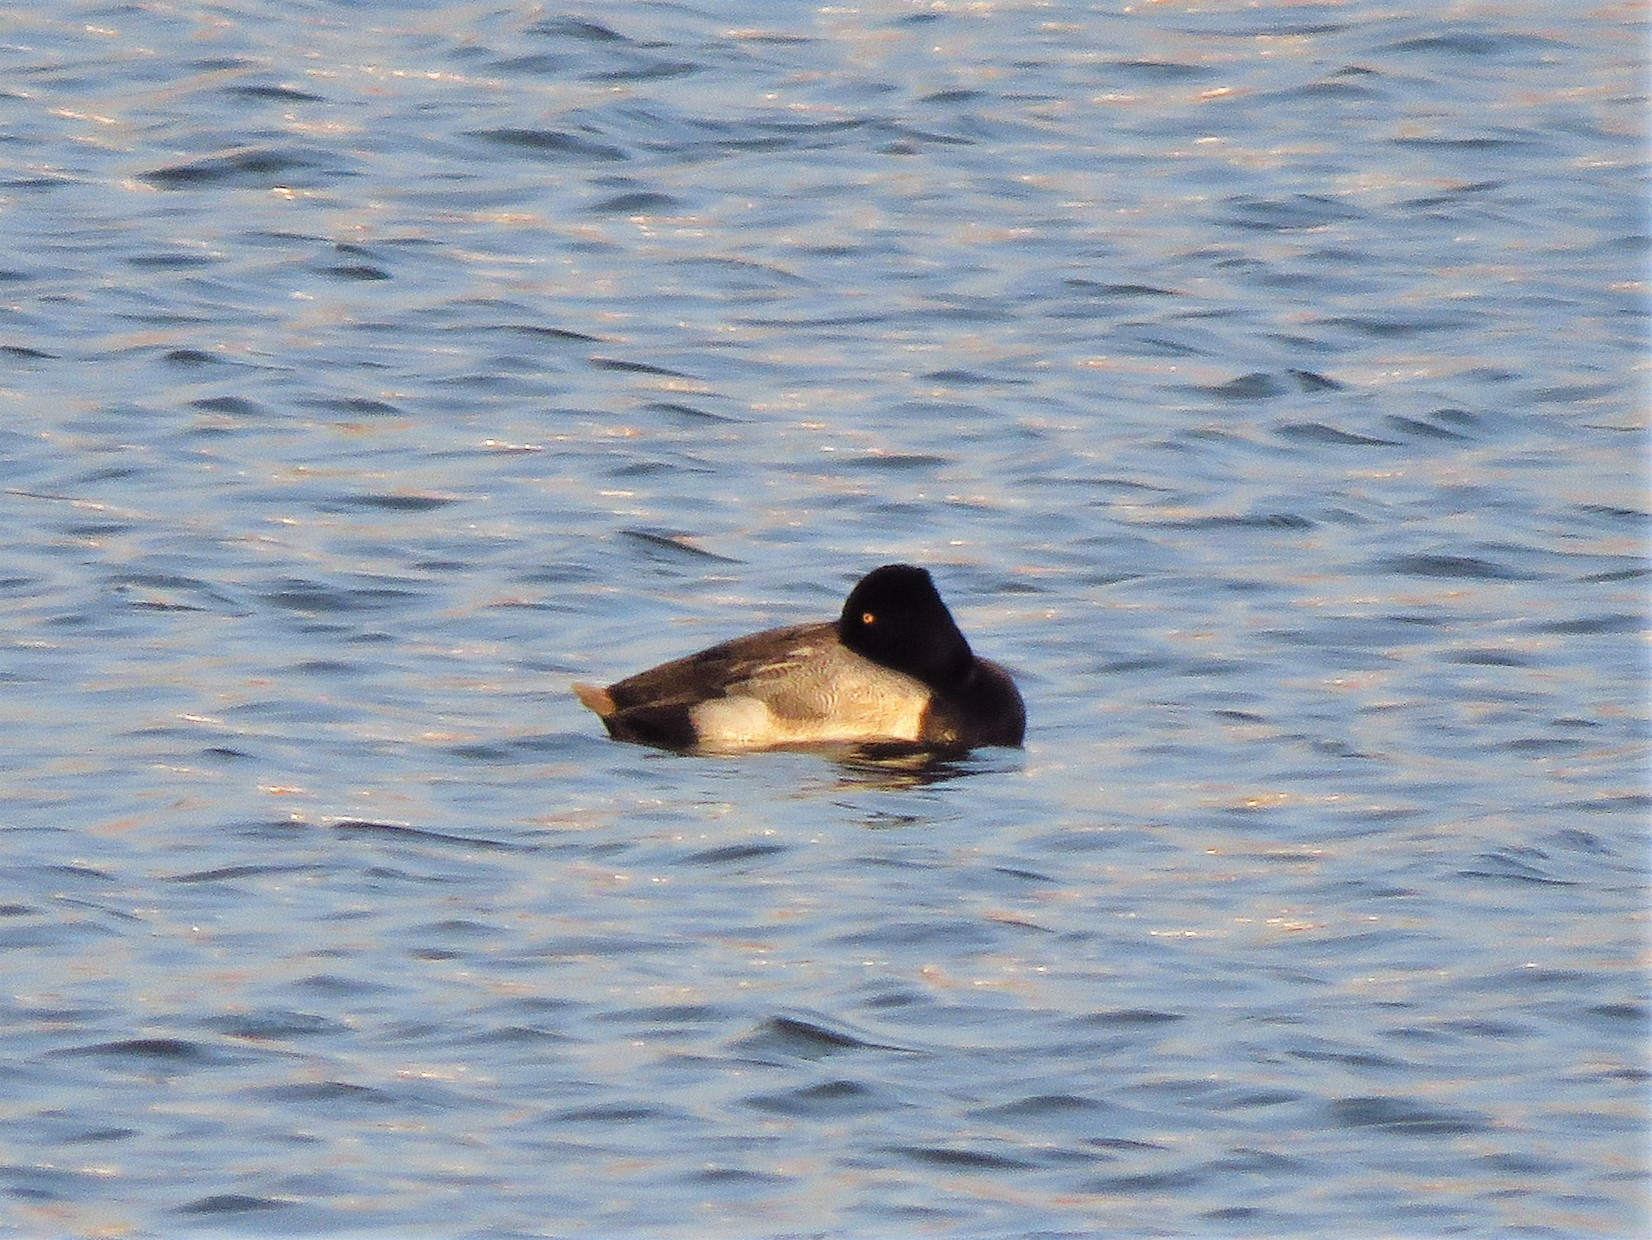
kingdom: Animalia
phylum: Chordata
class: Aves
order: Anseriformes
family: Anatidae
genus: Aythya
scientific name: Aythya affinis
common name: Lesser scaup
